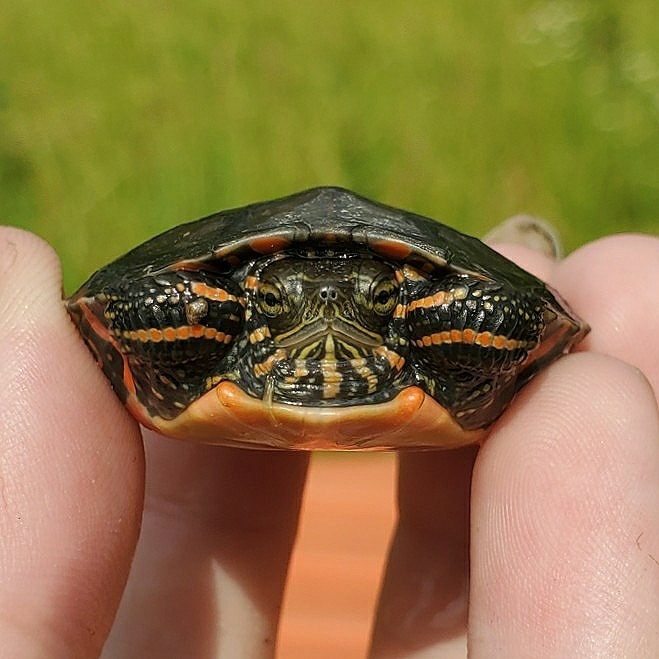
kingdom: Animalia
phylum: Chordata
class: Testudines
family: Emydidae
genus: Chrysemys
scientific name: Chrysemys picta
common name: Painted turtle
